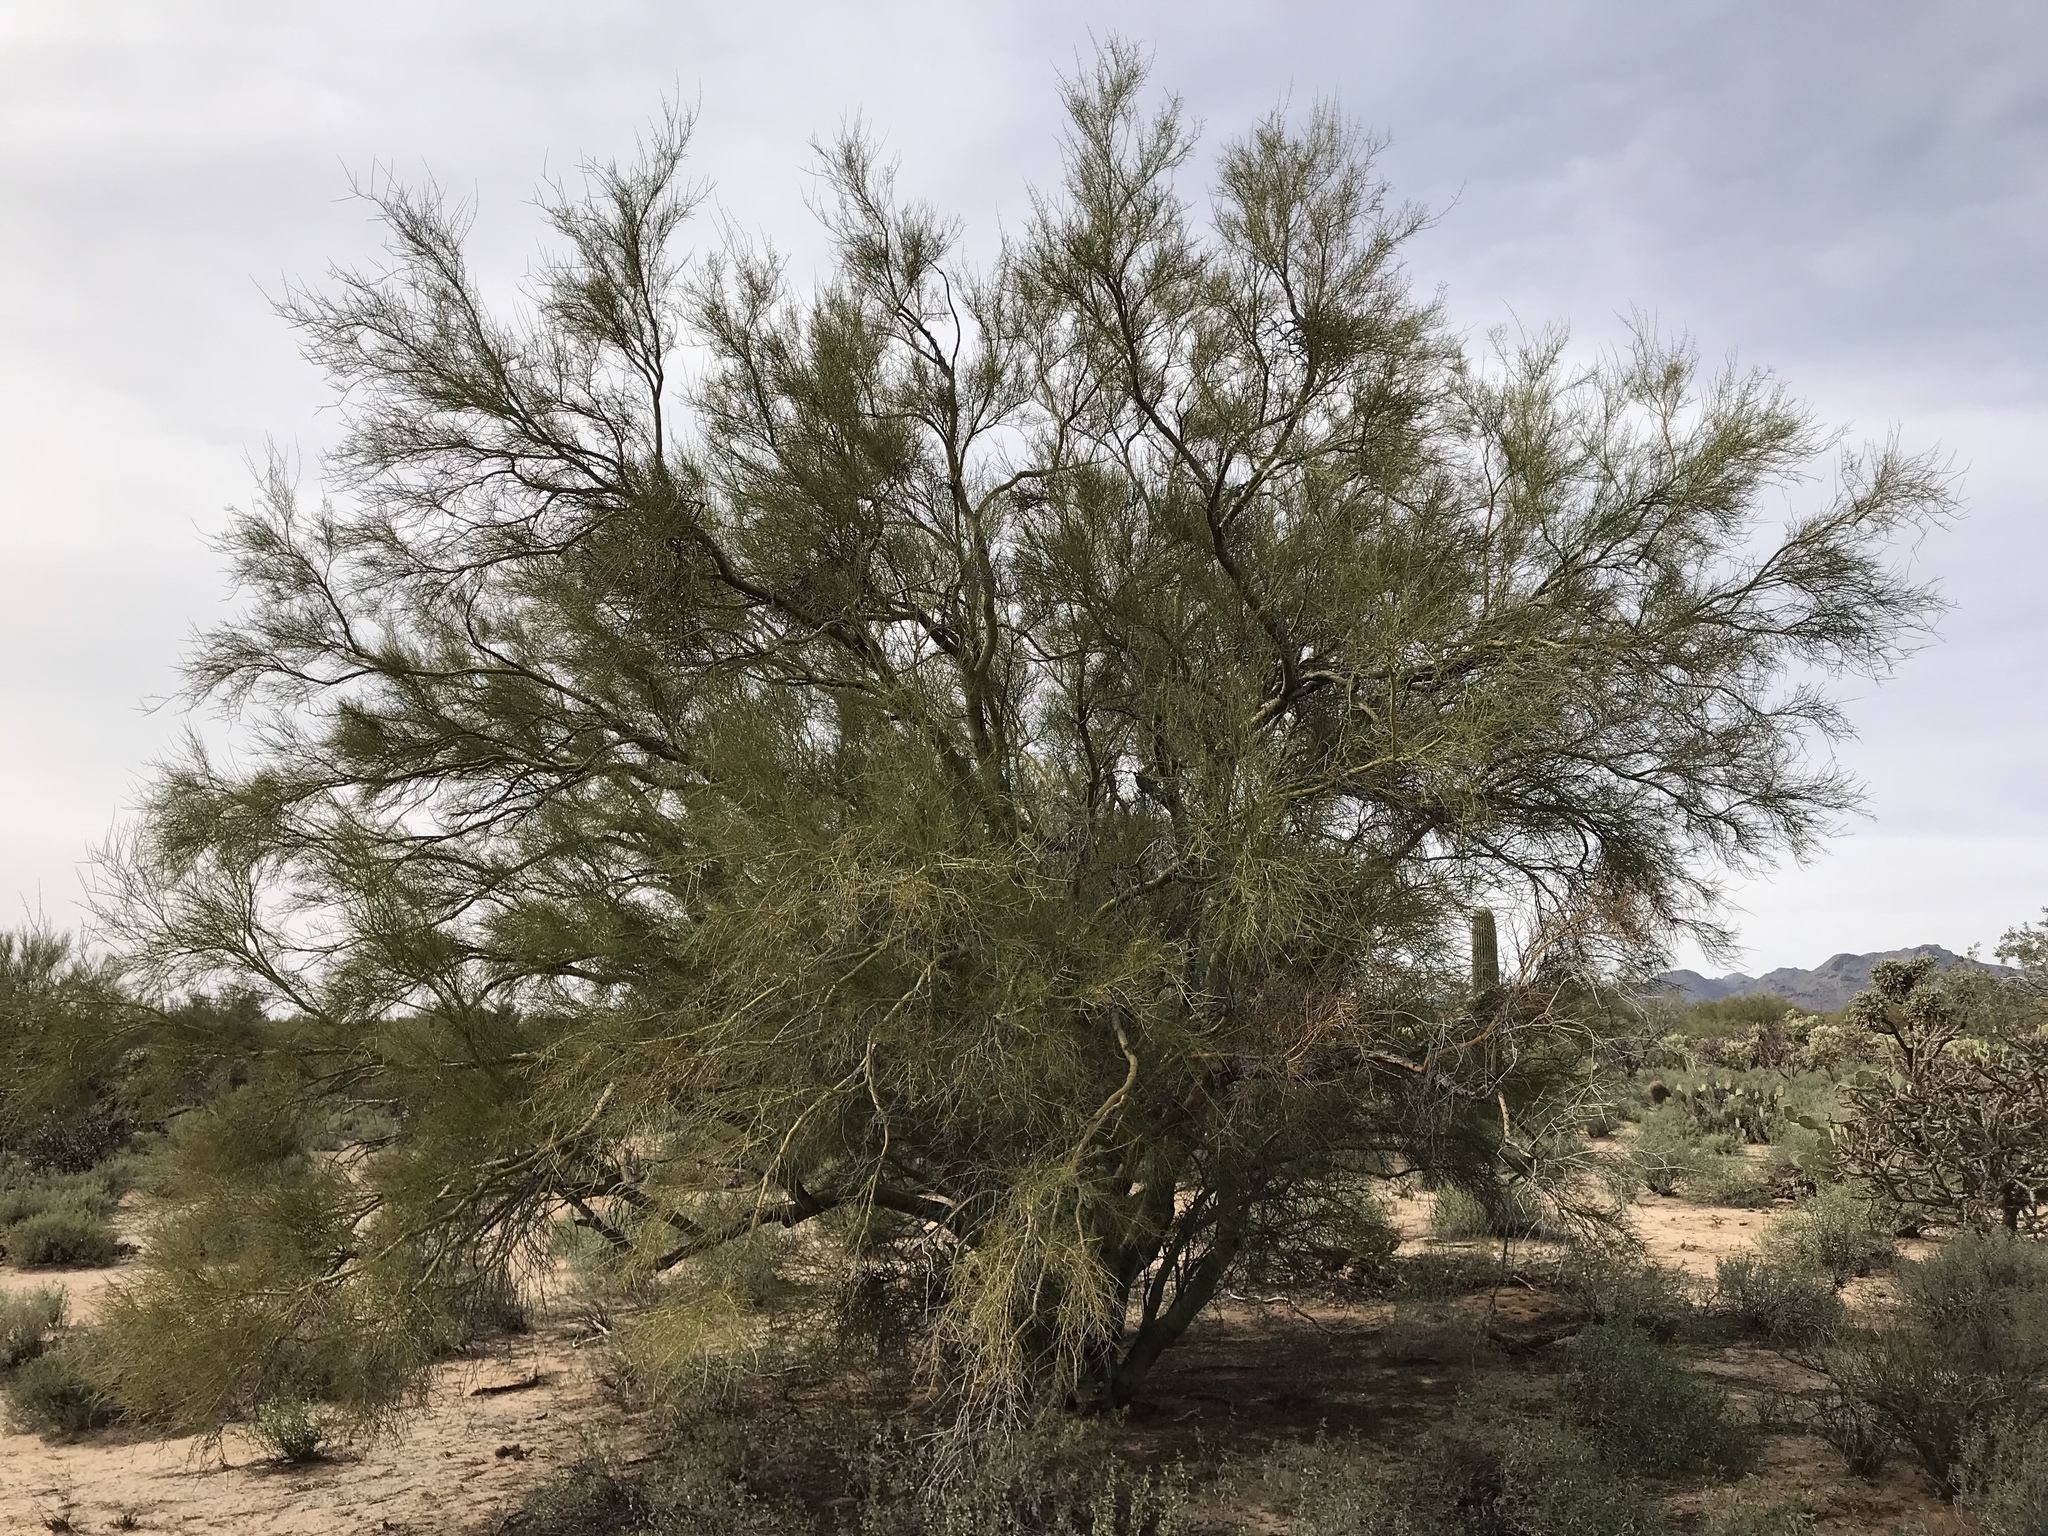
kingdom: Plantae
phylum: Tracheophyta
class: Magnoliopsida
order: Fabales
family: Fabaceae
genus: Parkinsonia
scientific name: Parkinsonia microphylla
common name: Yellow paloverde
